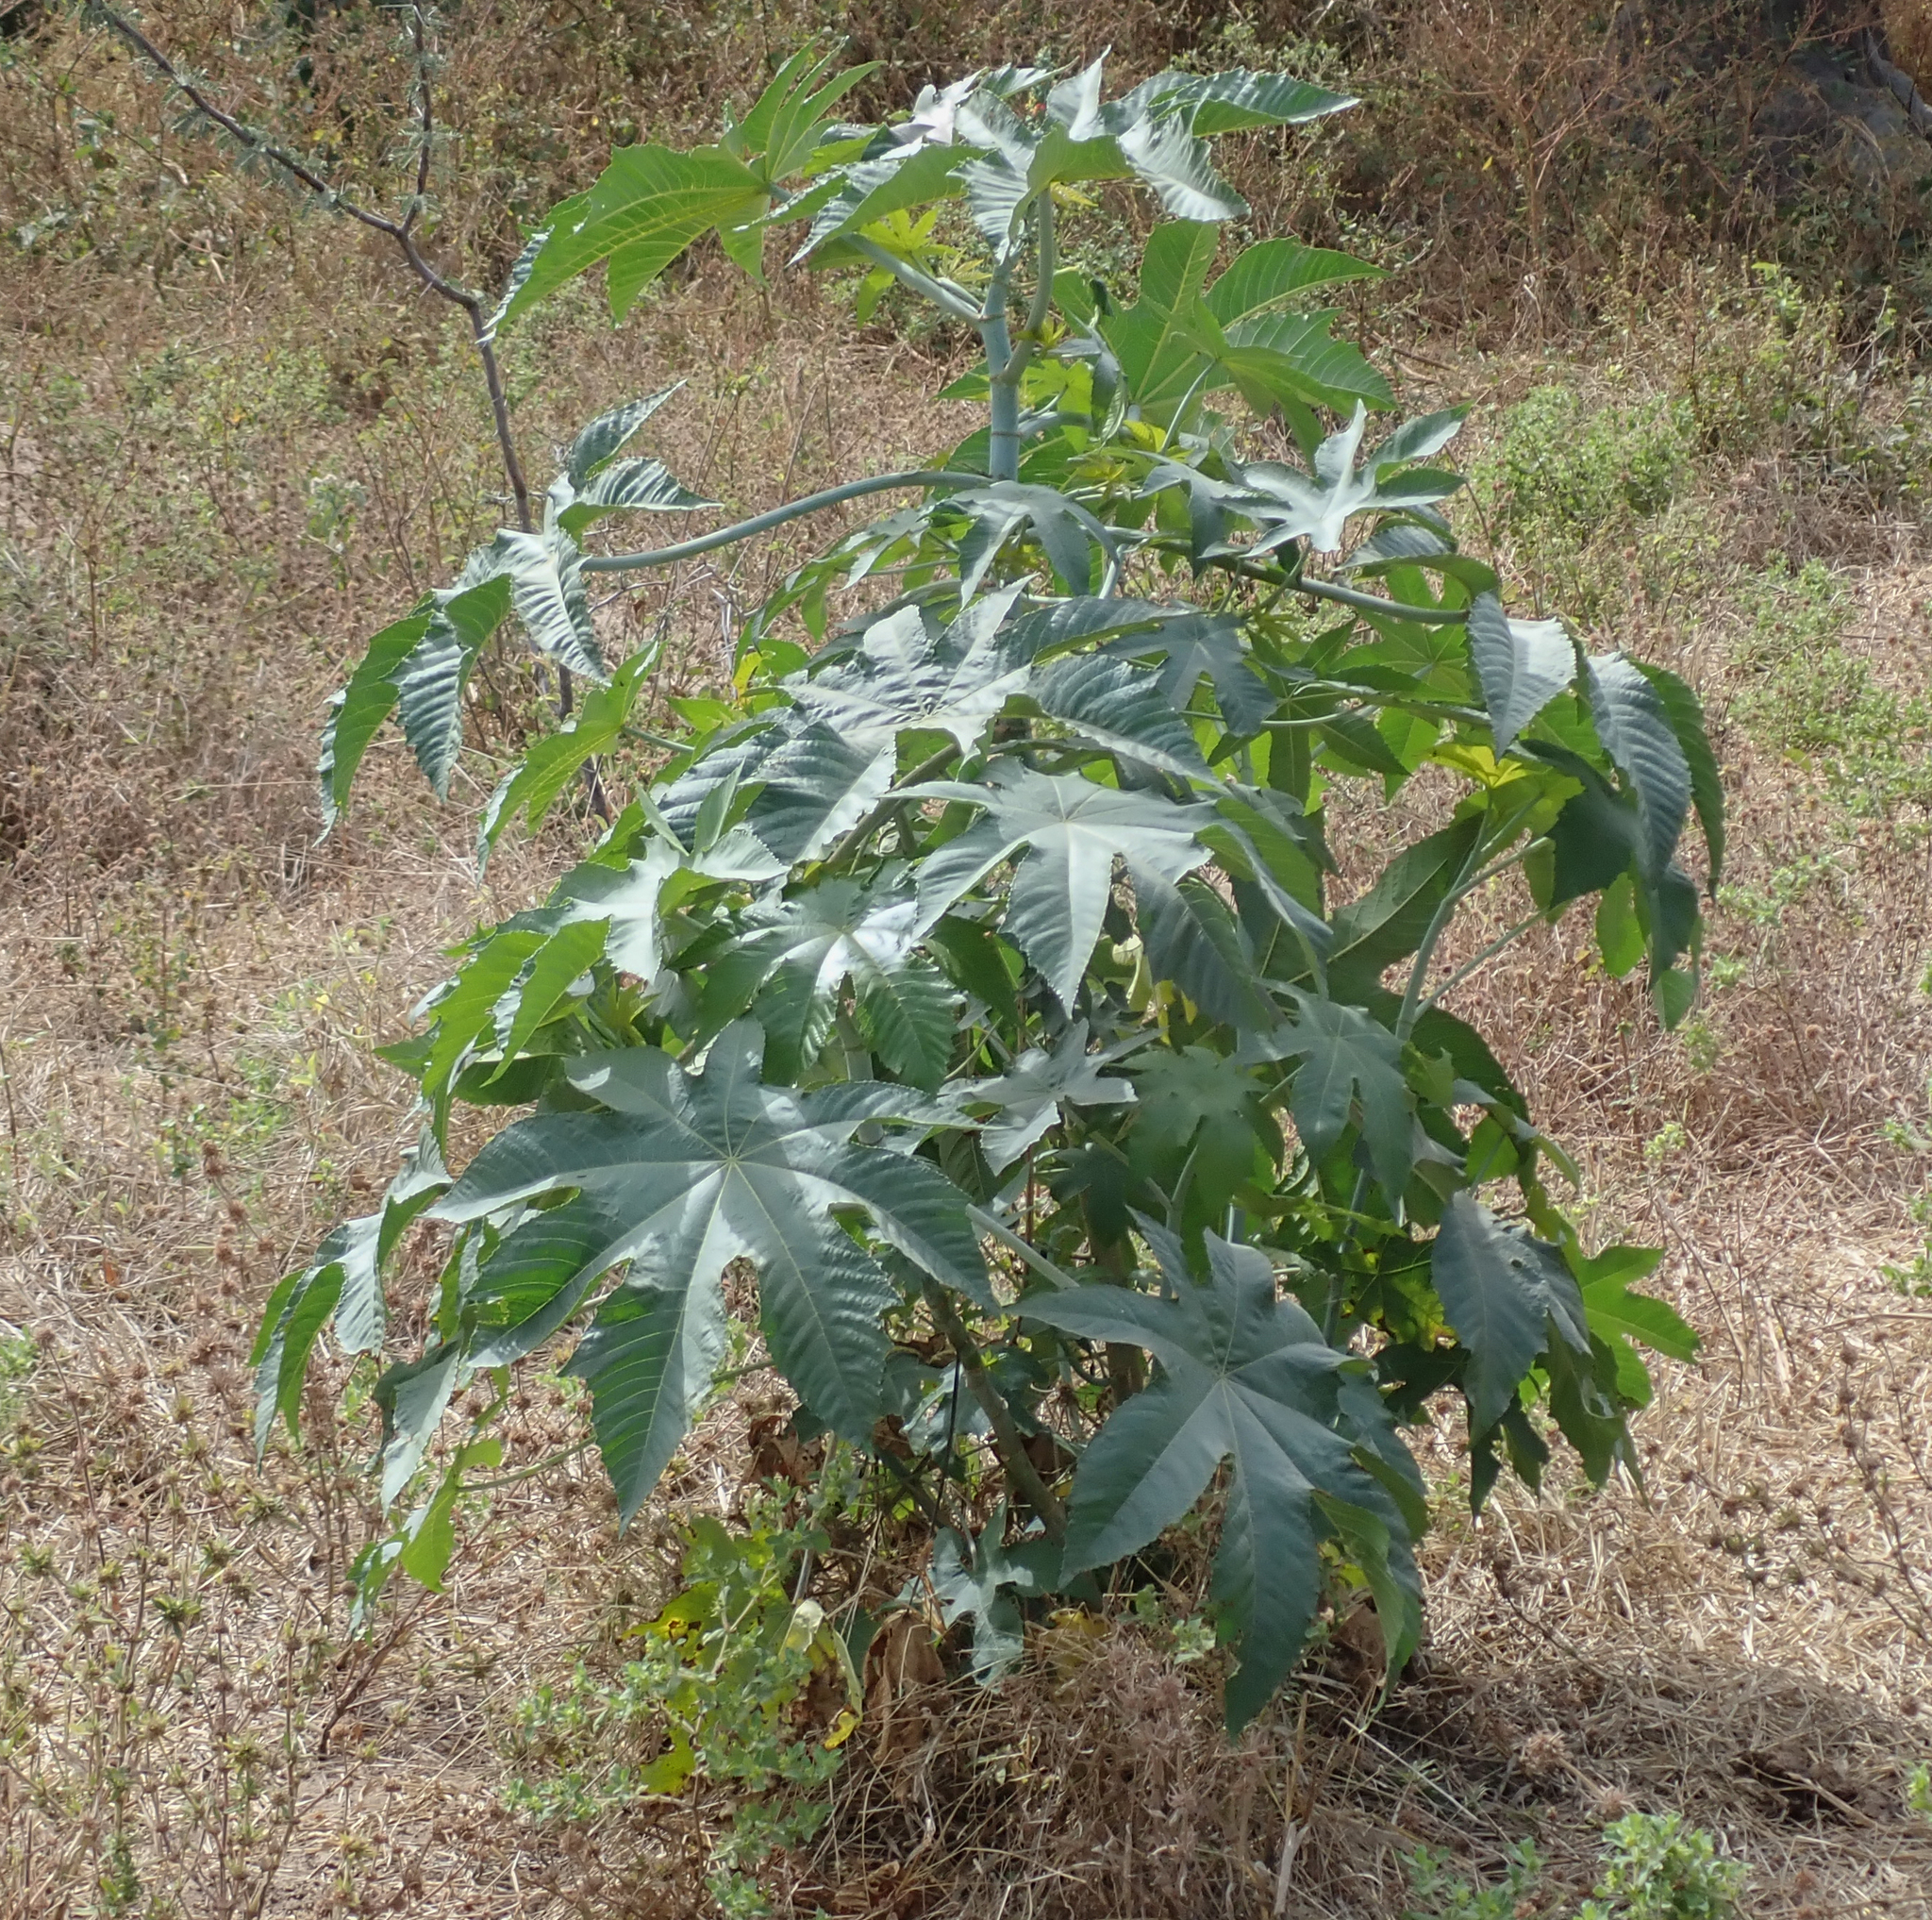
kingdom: Plantae
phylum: Tracheophyta
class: Magnoliopsida
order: Malpighiales
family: Euphorbiaceae
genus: Ricinus
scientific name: Ricinus communis
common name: Castor-oil-plant
